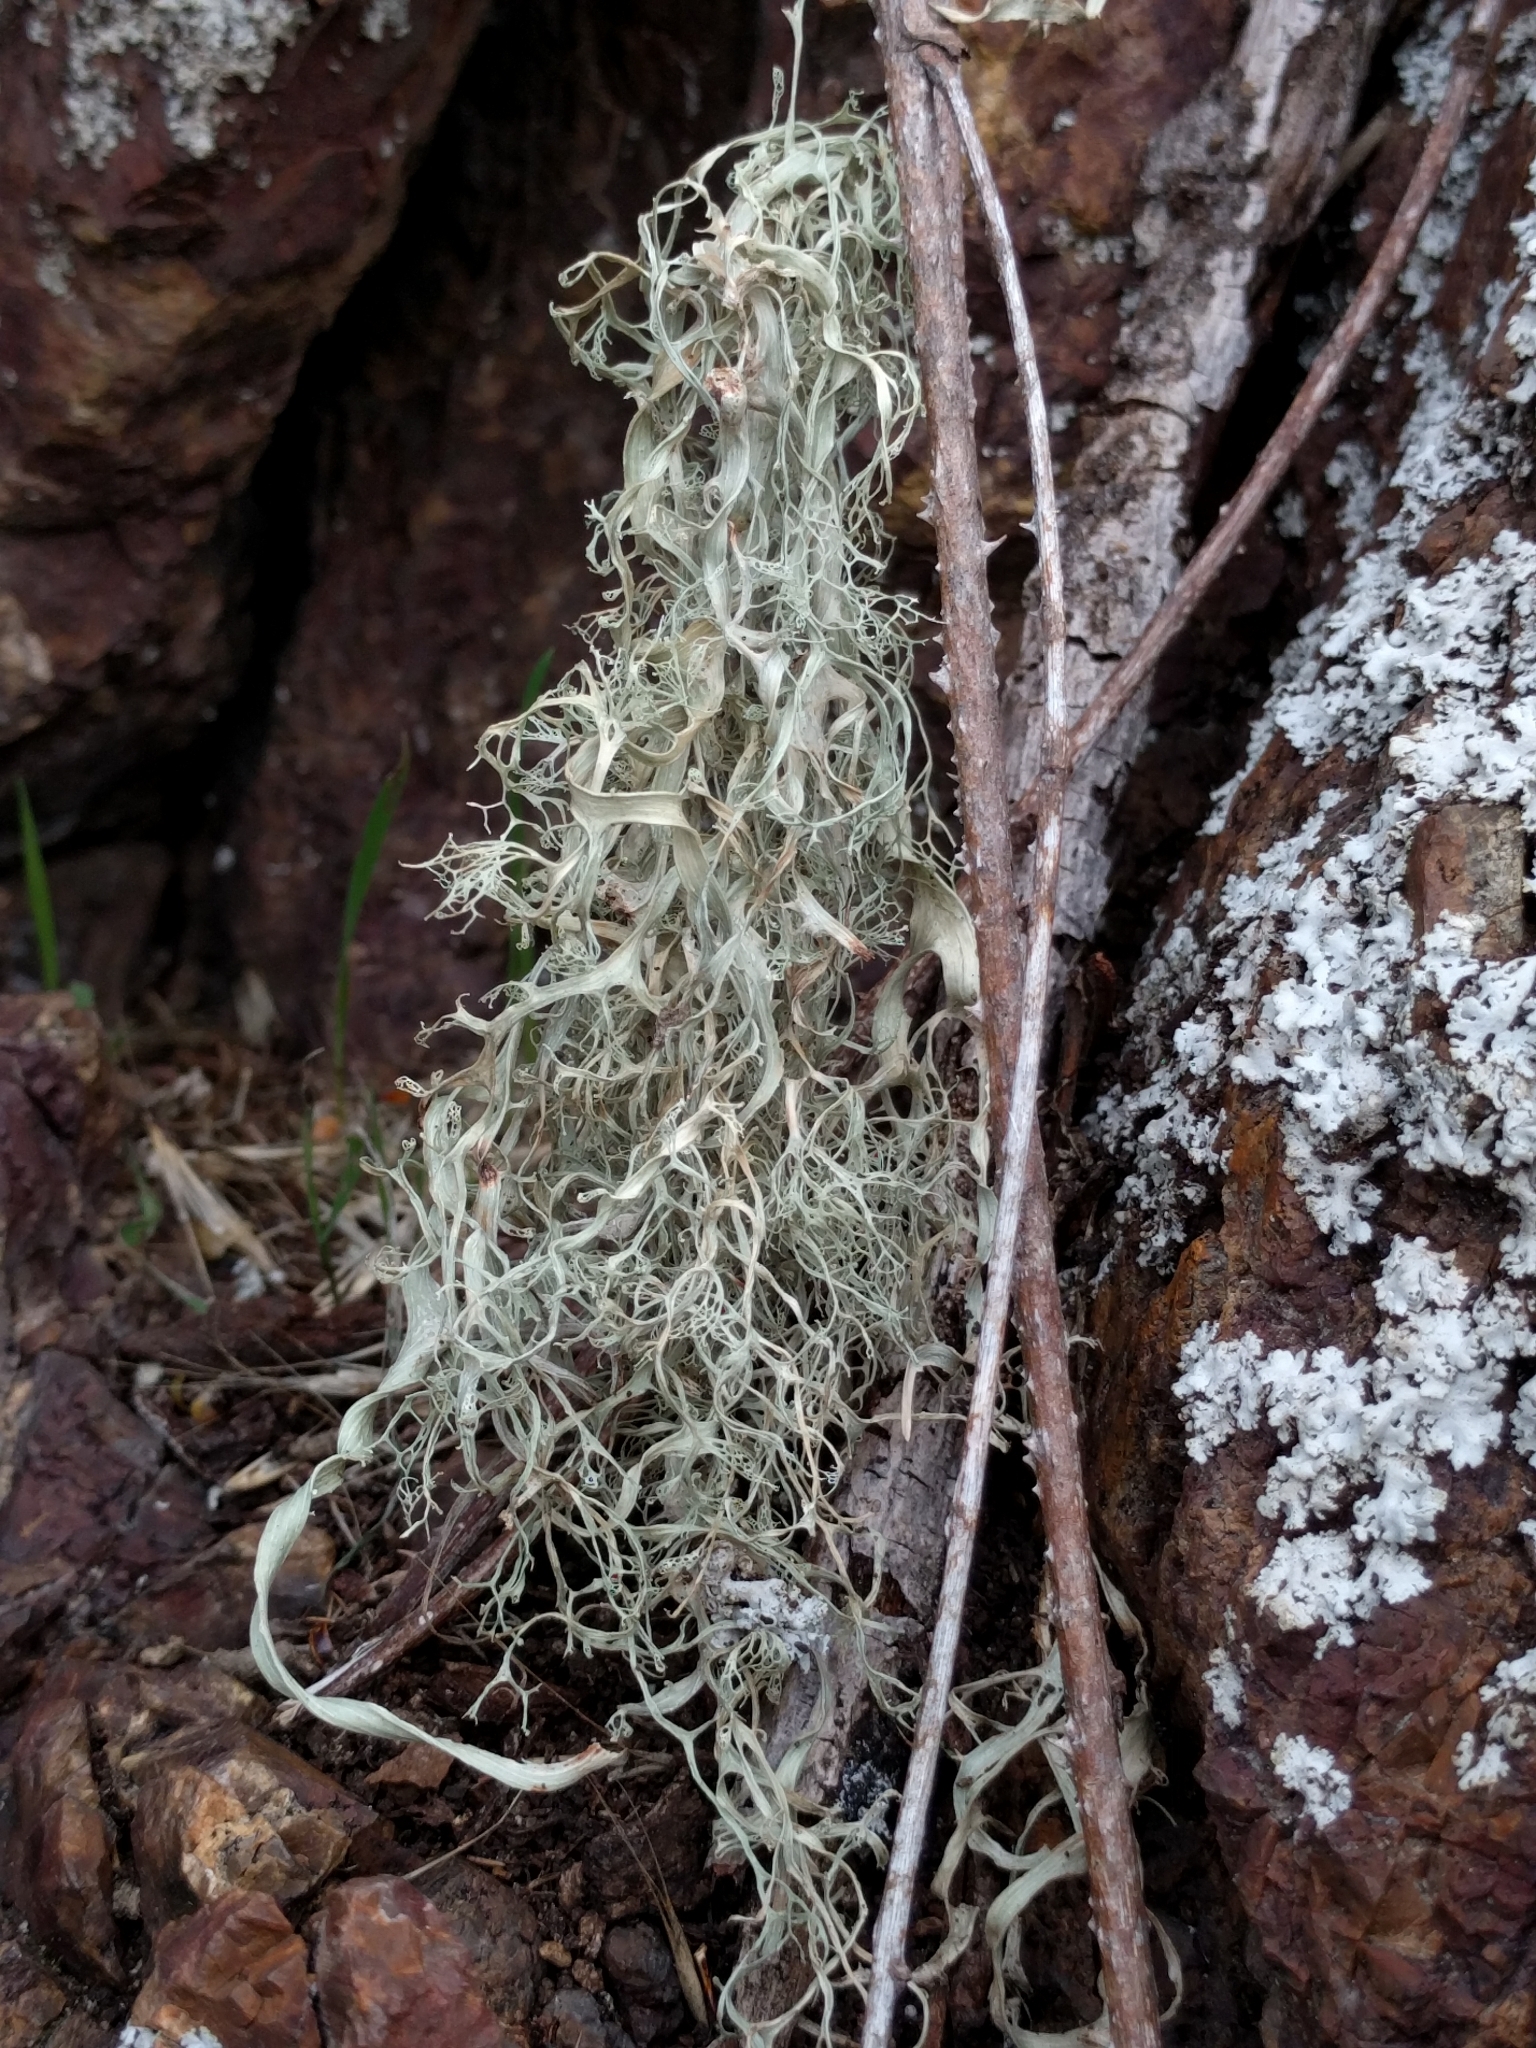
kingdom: Fungi
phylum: Ascomycota
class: Lecanoromycetes
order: Lecanorales
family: Ramalinaceae
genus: Ramalina
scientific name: Ramalina menziesii
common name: Lace lichen
